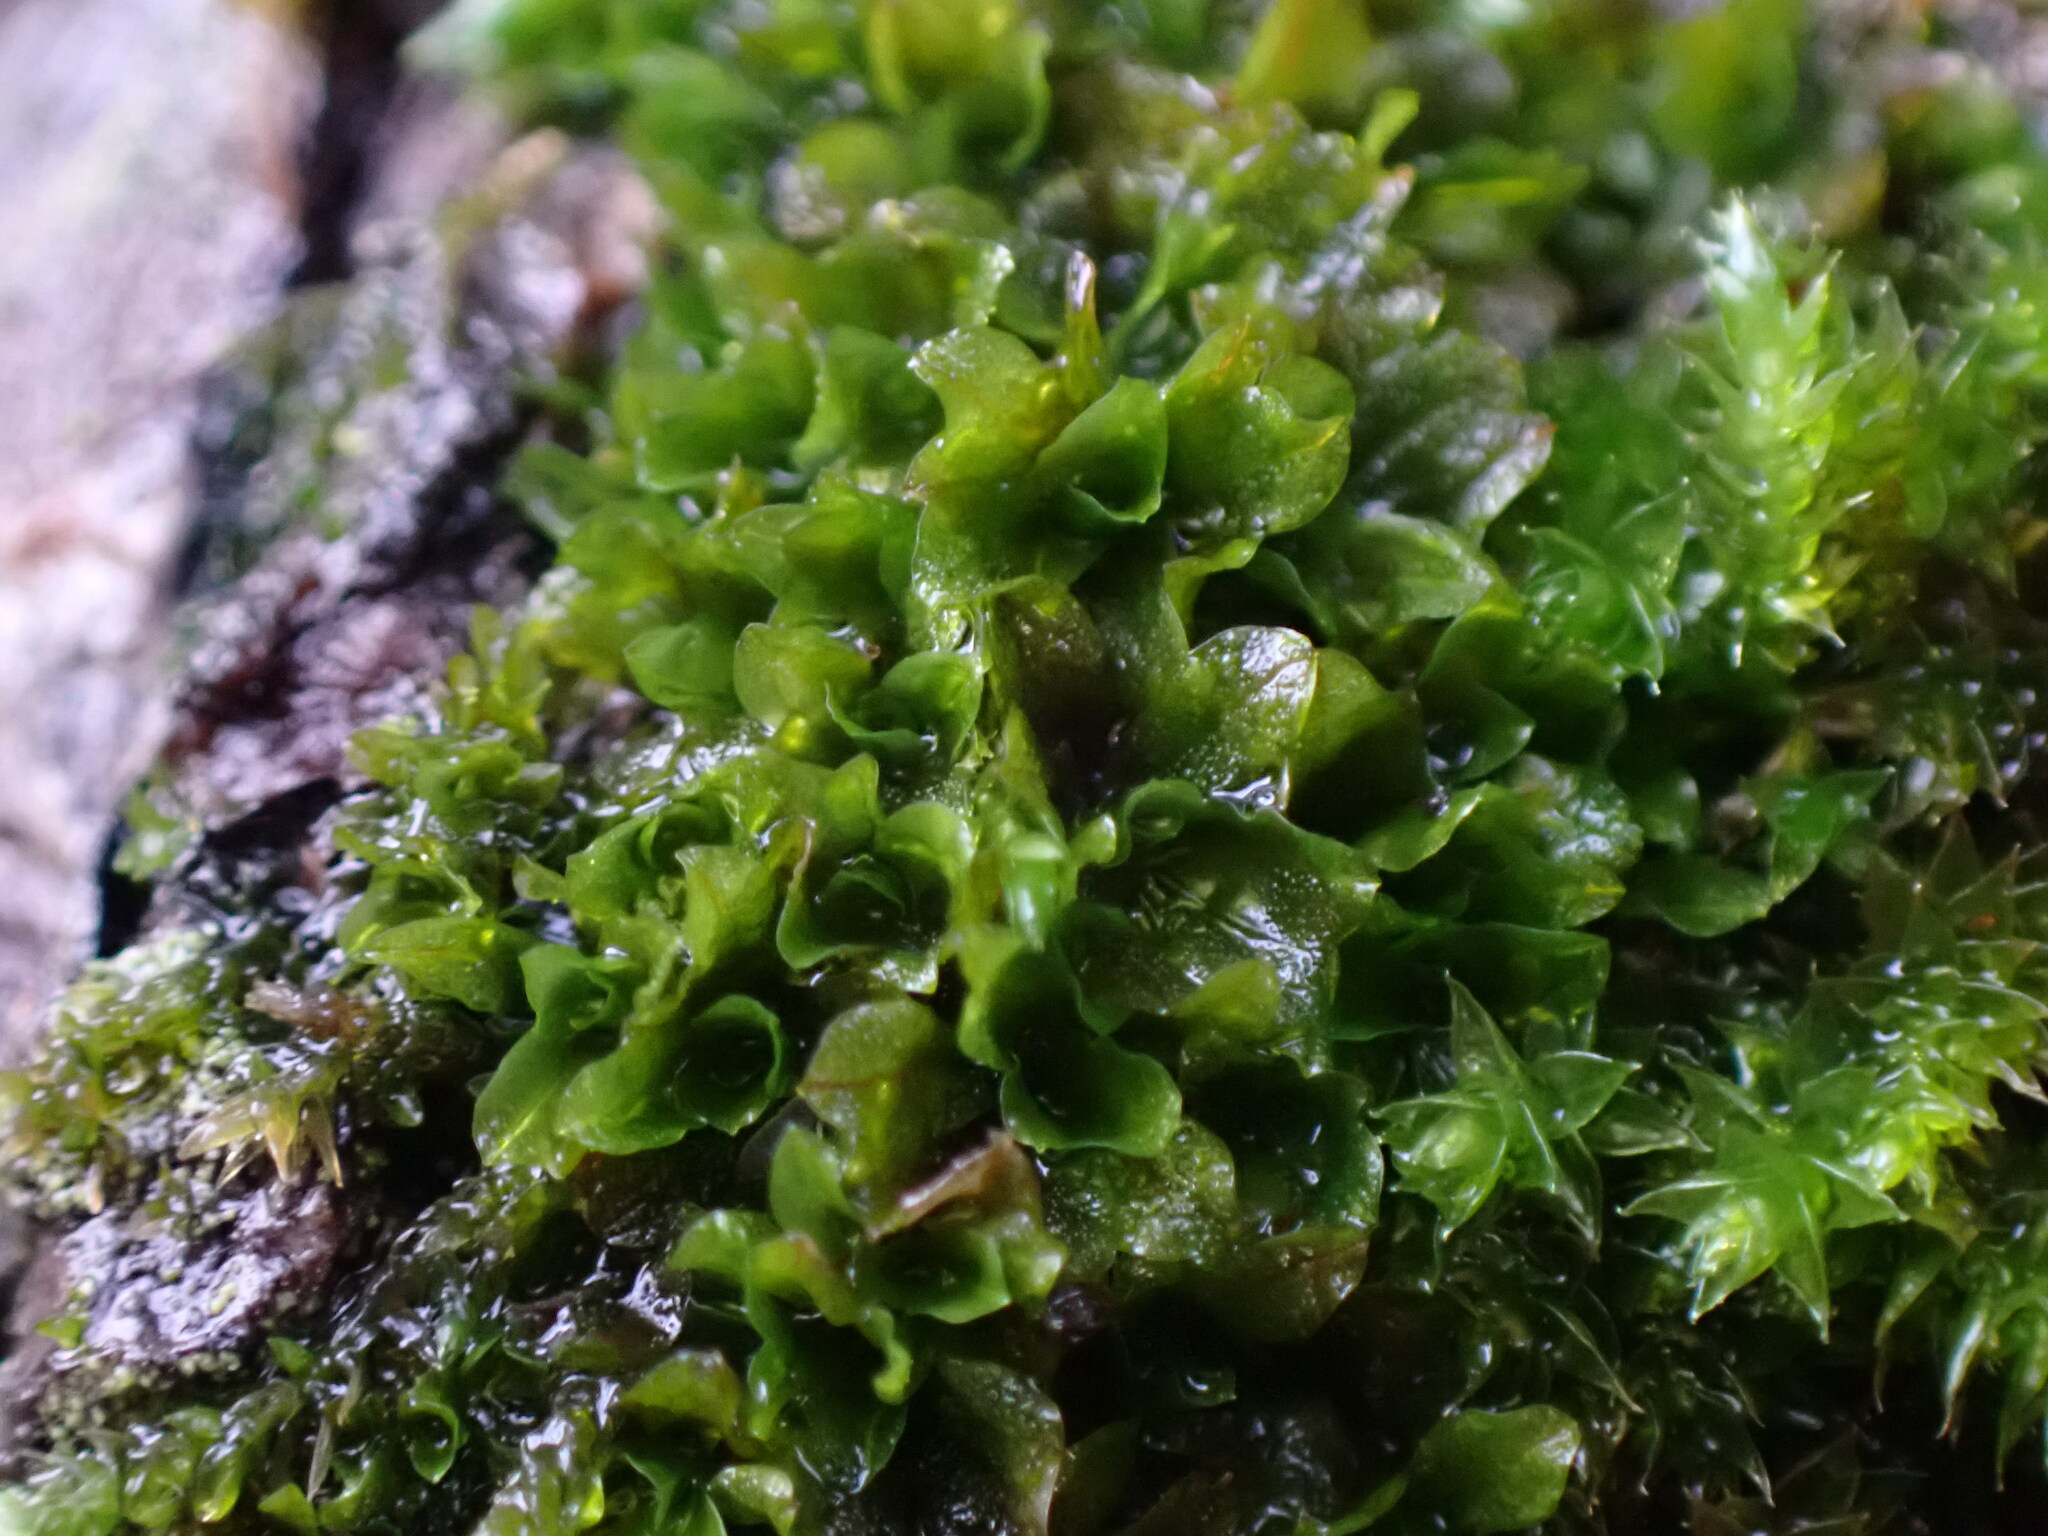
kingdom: Plantae
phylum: Bryophyta
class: Bryopsida
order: Pottiales
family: Pottiaceae
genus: Syntrichia
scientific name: Syntrichia latifolia
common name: Water screw-moss
